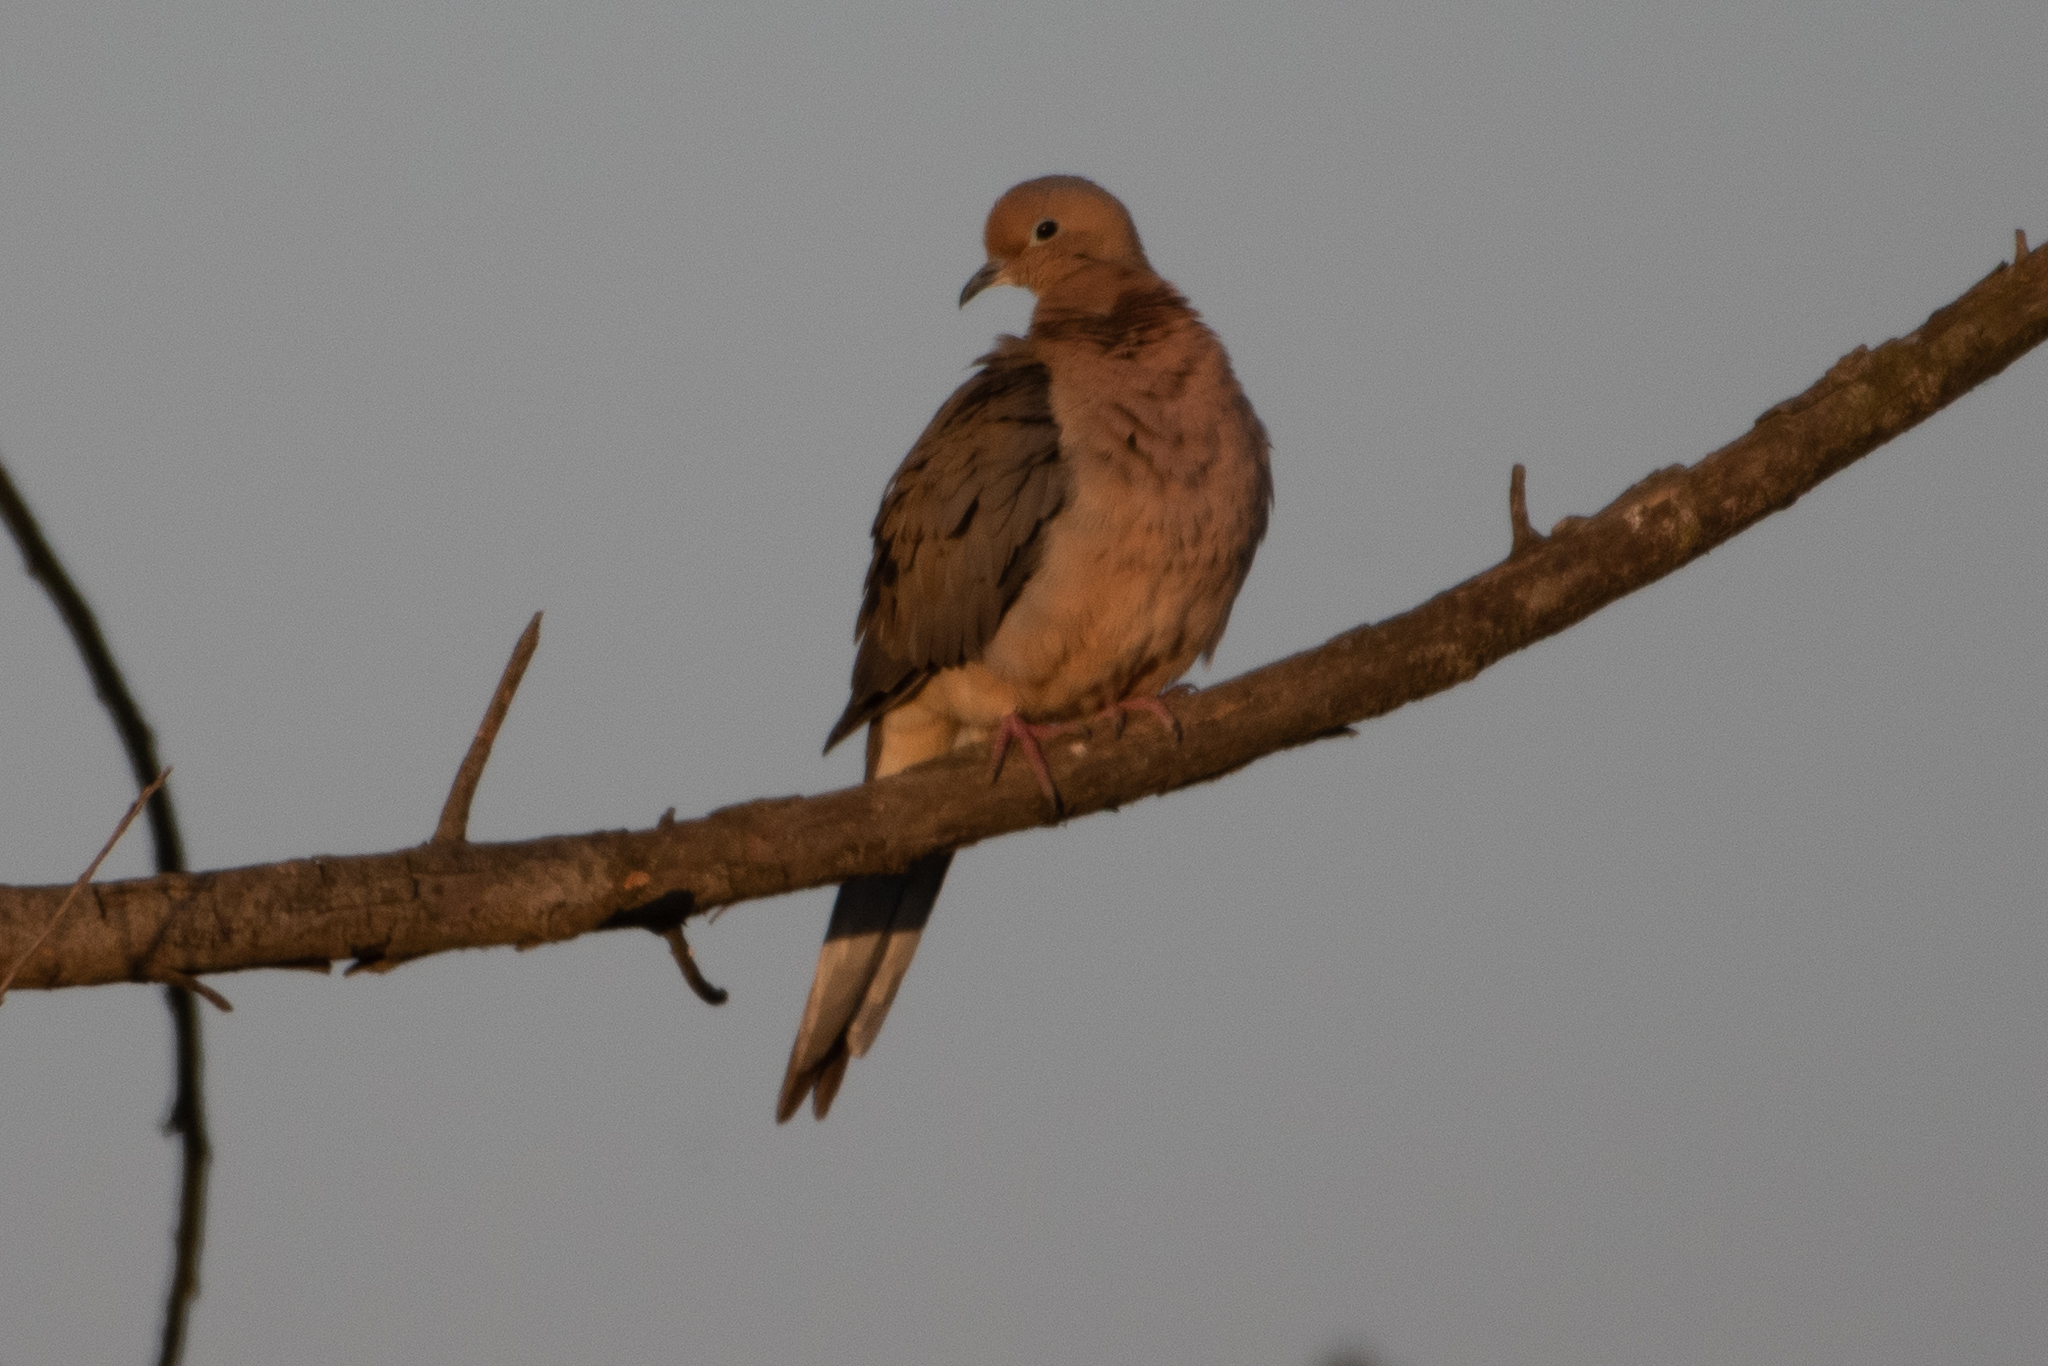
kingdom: Animalia
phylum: Chordata
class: Aves
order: Columbiformes
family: Columbidae
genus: Zenaida
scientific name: Zenaida macroura
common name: Mourning dove
